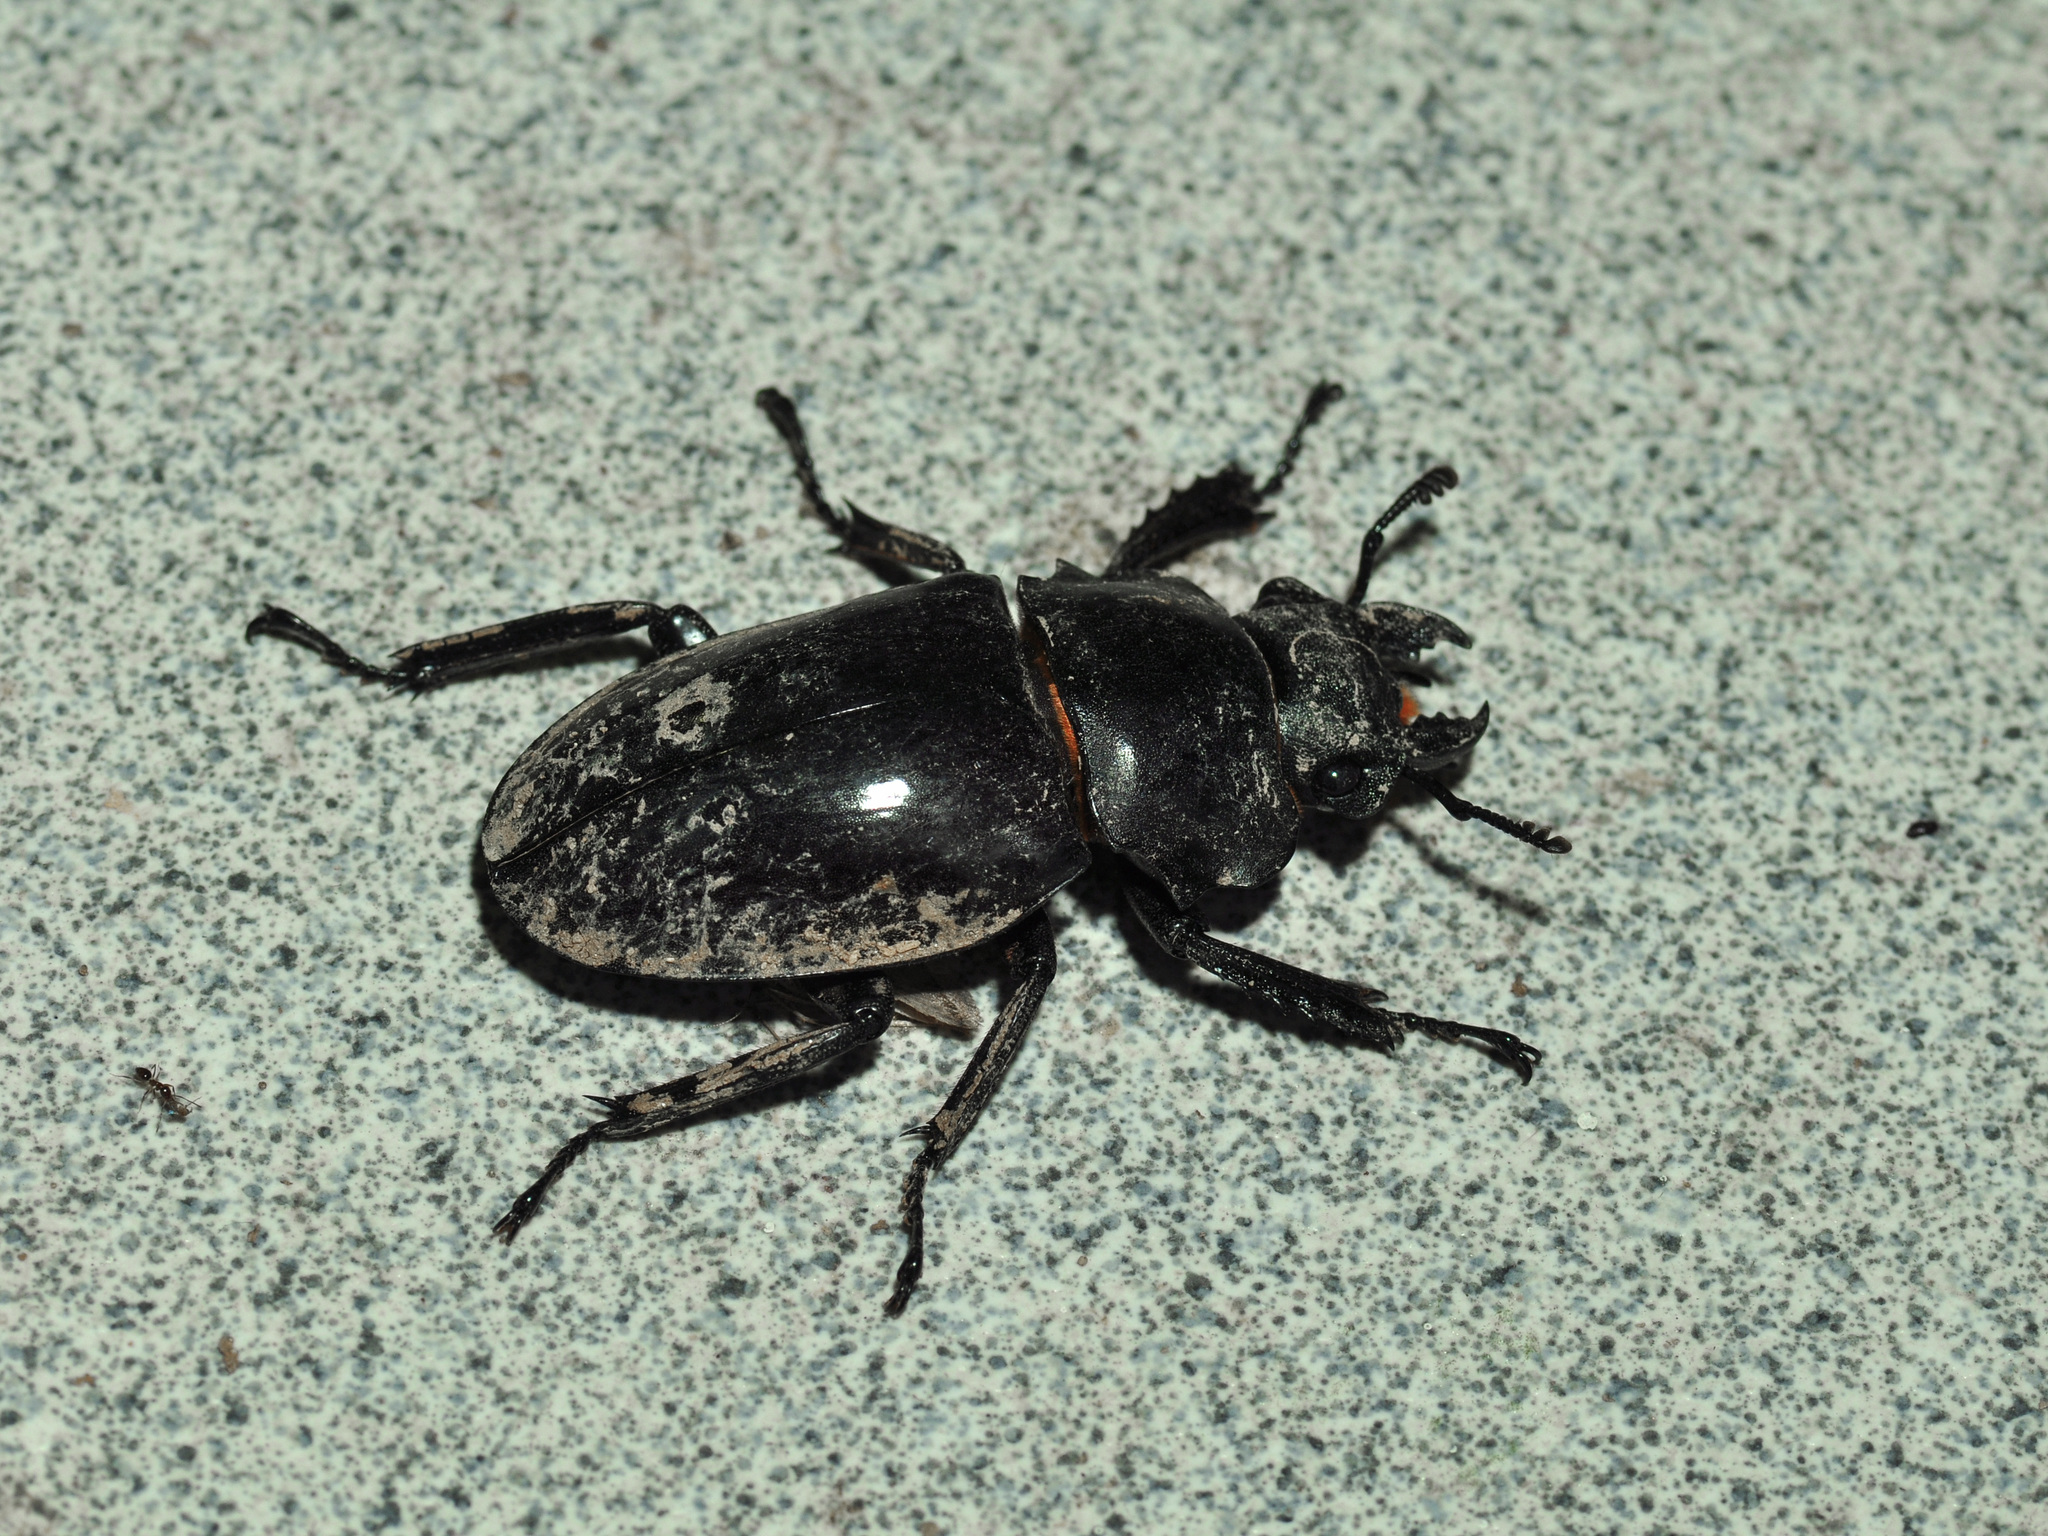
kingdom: Animalia
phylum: Arthropoda
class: Insecta
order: Coleoptera
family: Lucanidae
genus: Odontolabis
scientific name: Odontolabis dalmani
